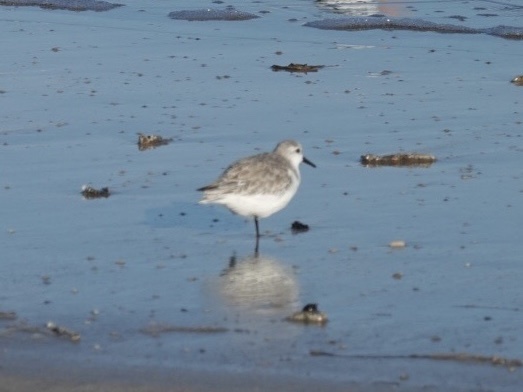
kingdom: Animalia
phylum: Chordata
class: Aves
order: Charadriiformes
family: Scolopacidae
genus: Calidris
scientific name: Calidris alba
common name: Sanderling
